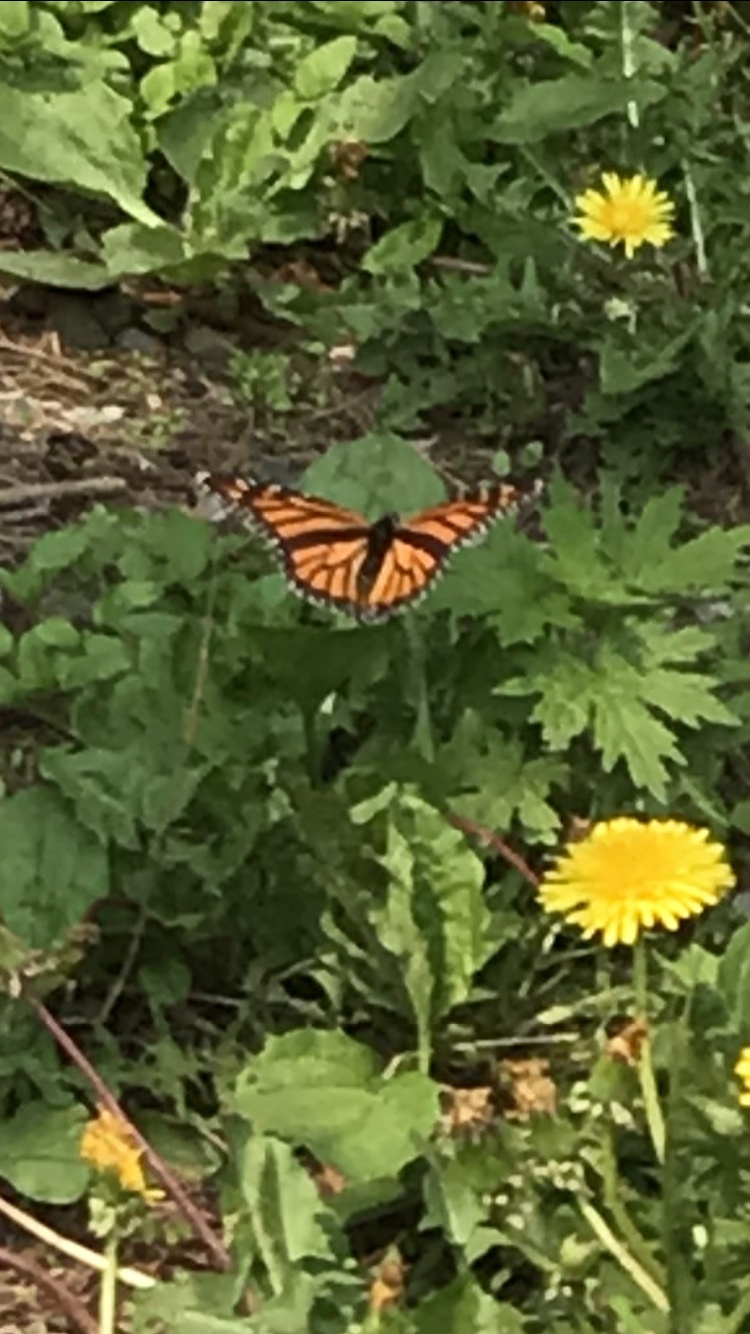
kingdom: Animalia
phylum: Arthropoda
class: Insecta
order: Lepidoptera
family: Nymphalidae
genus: Danaus
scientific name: Danaus plexippus
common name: Monarch
